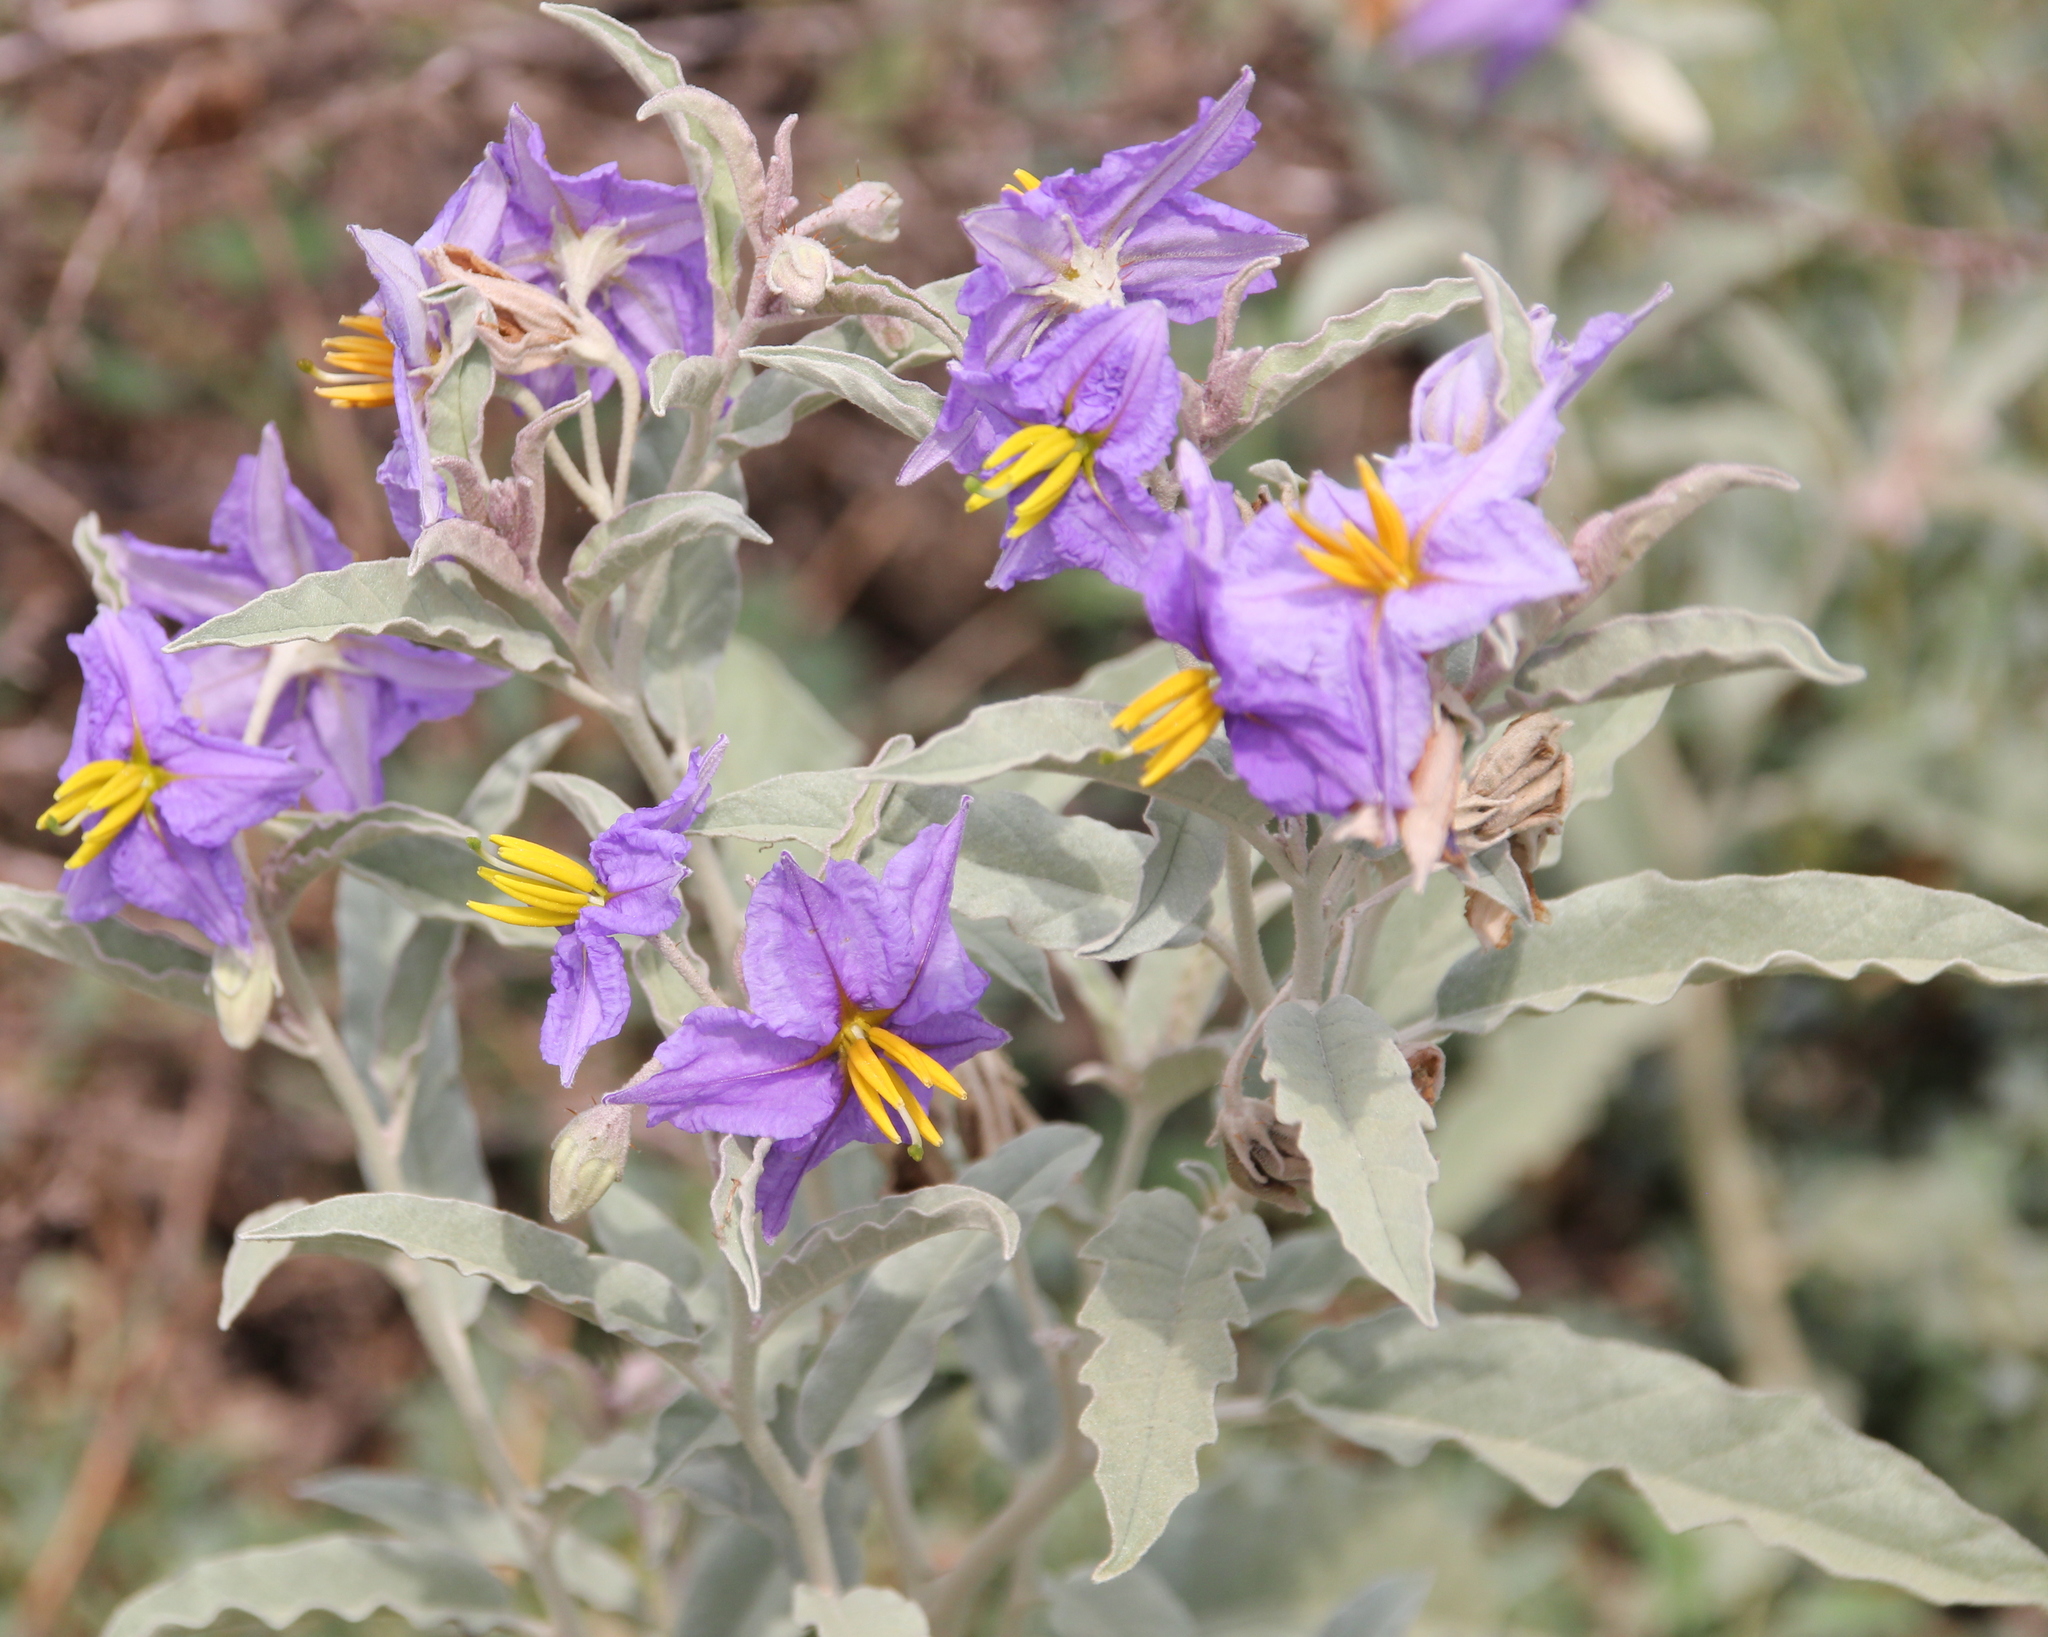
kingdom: Plantae
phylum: Tracheophyta
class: Magnoliopsida
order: Solanales
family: Solanaceae
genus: Solanum
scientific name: Solanum elaeagnifolium
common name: Silverleaf nightshade
